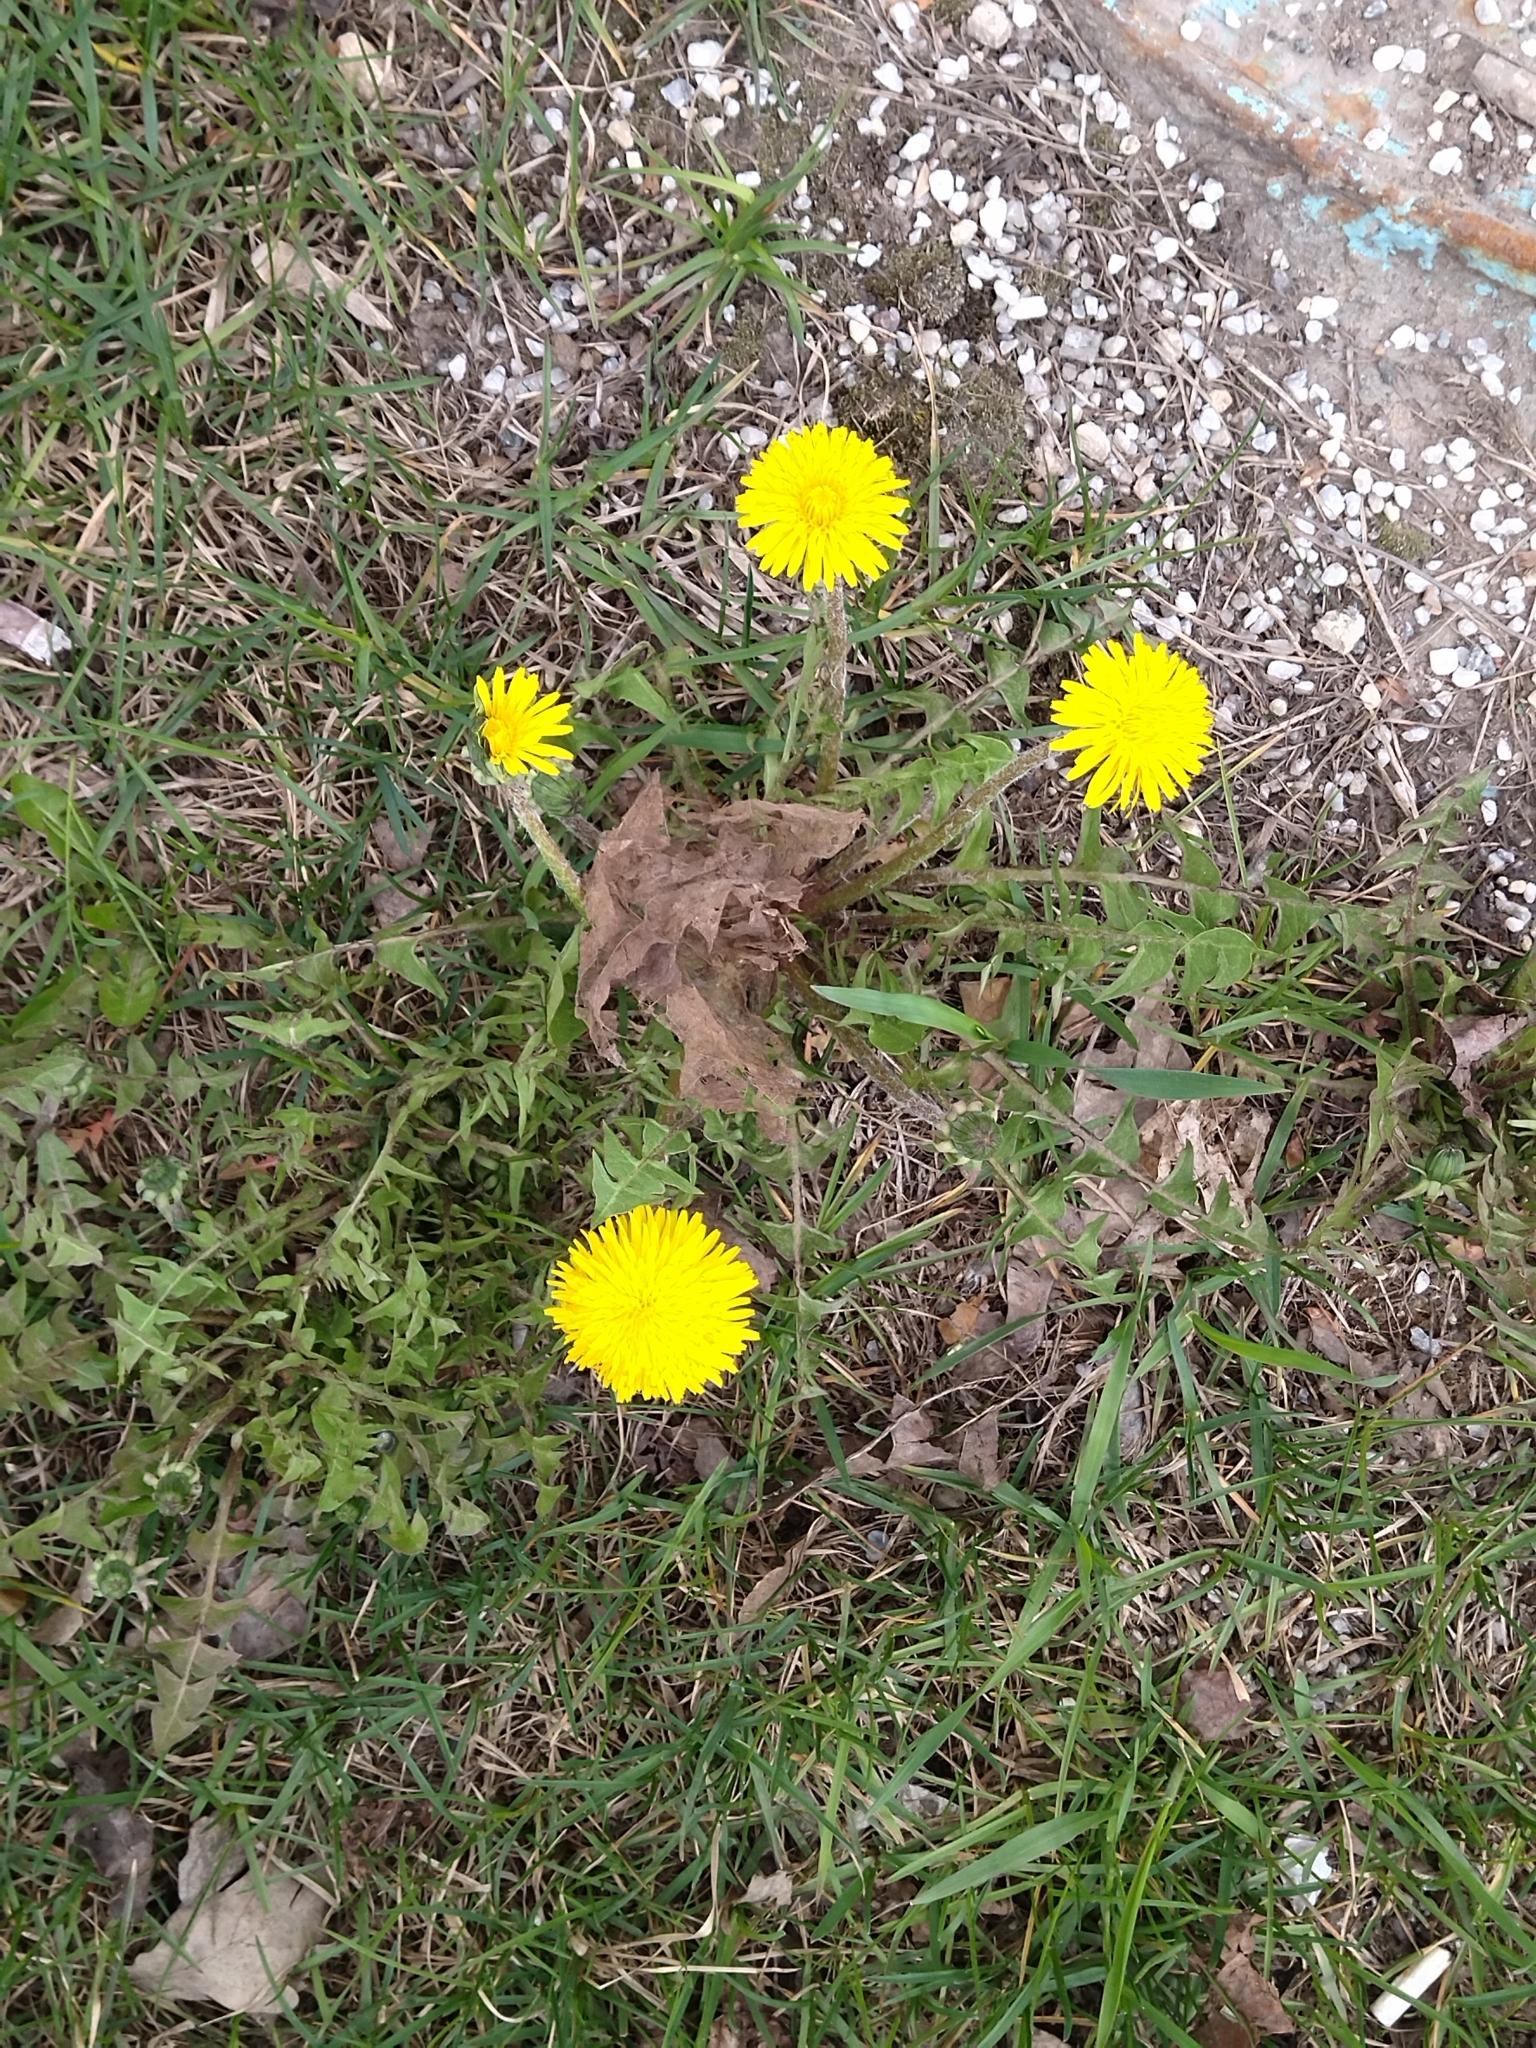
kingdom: Plantae
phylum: Tracheophyta
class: Magnoliopsida
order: Asterales
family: Asteraceae
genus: Taraxacum
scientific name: Taraxacum officinale
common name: Common dandelion
